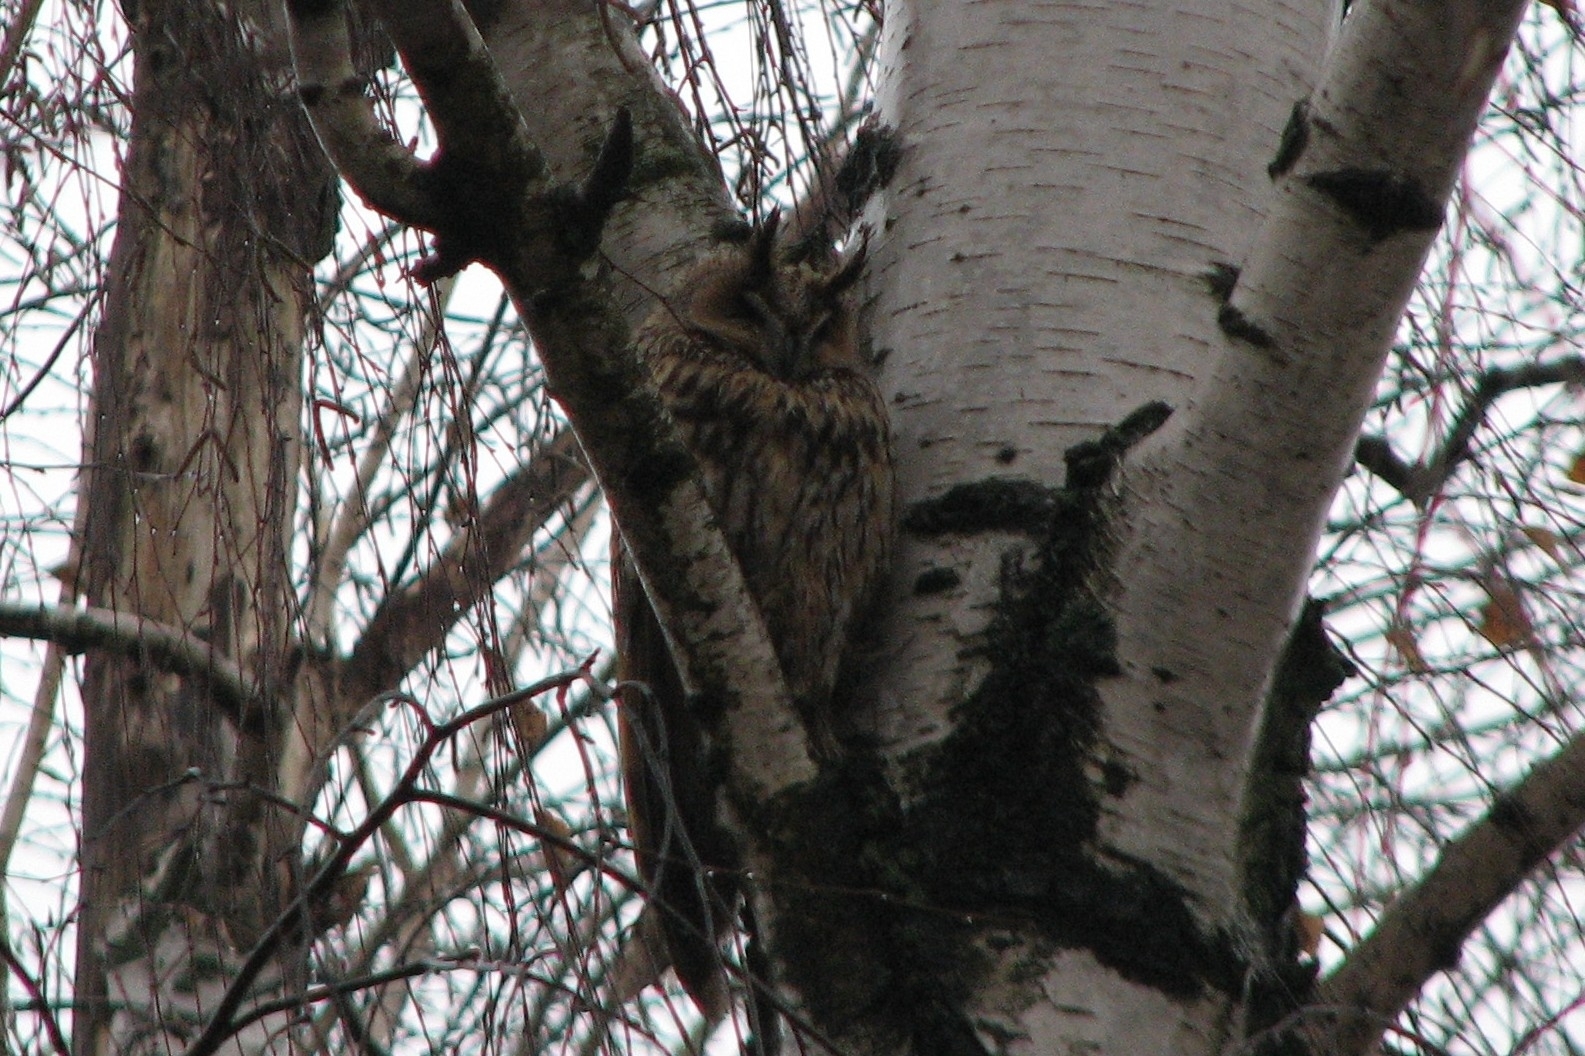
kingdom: Animalia
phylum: Chordata
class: Aves
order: Strigiformes
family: Strigidae
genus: Asio
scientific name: Asio otus
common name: Long-eared owl
